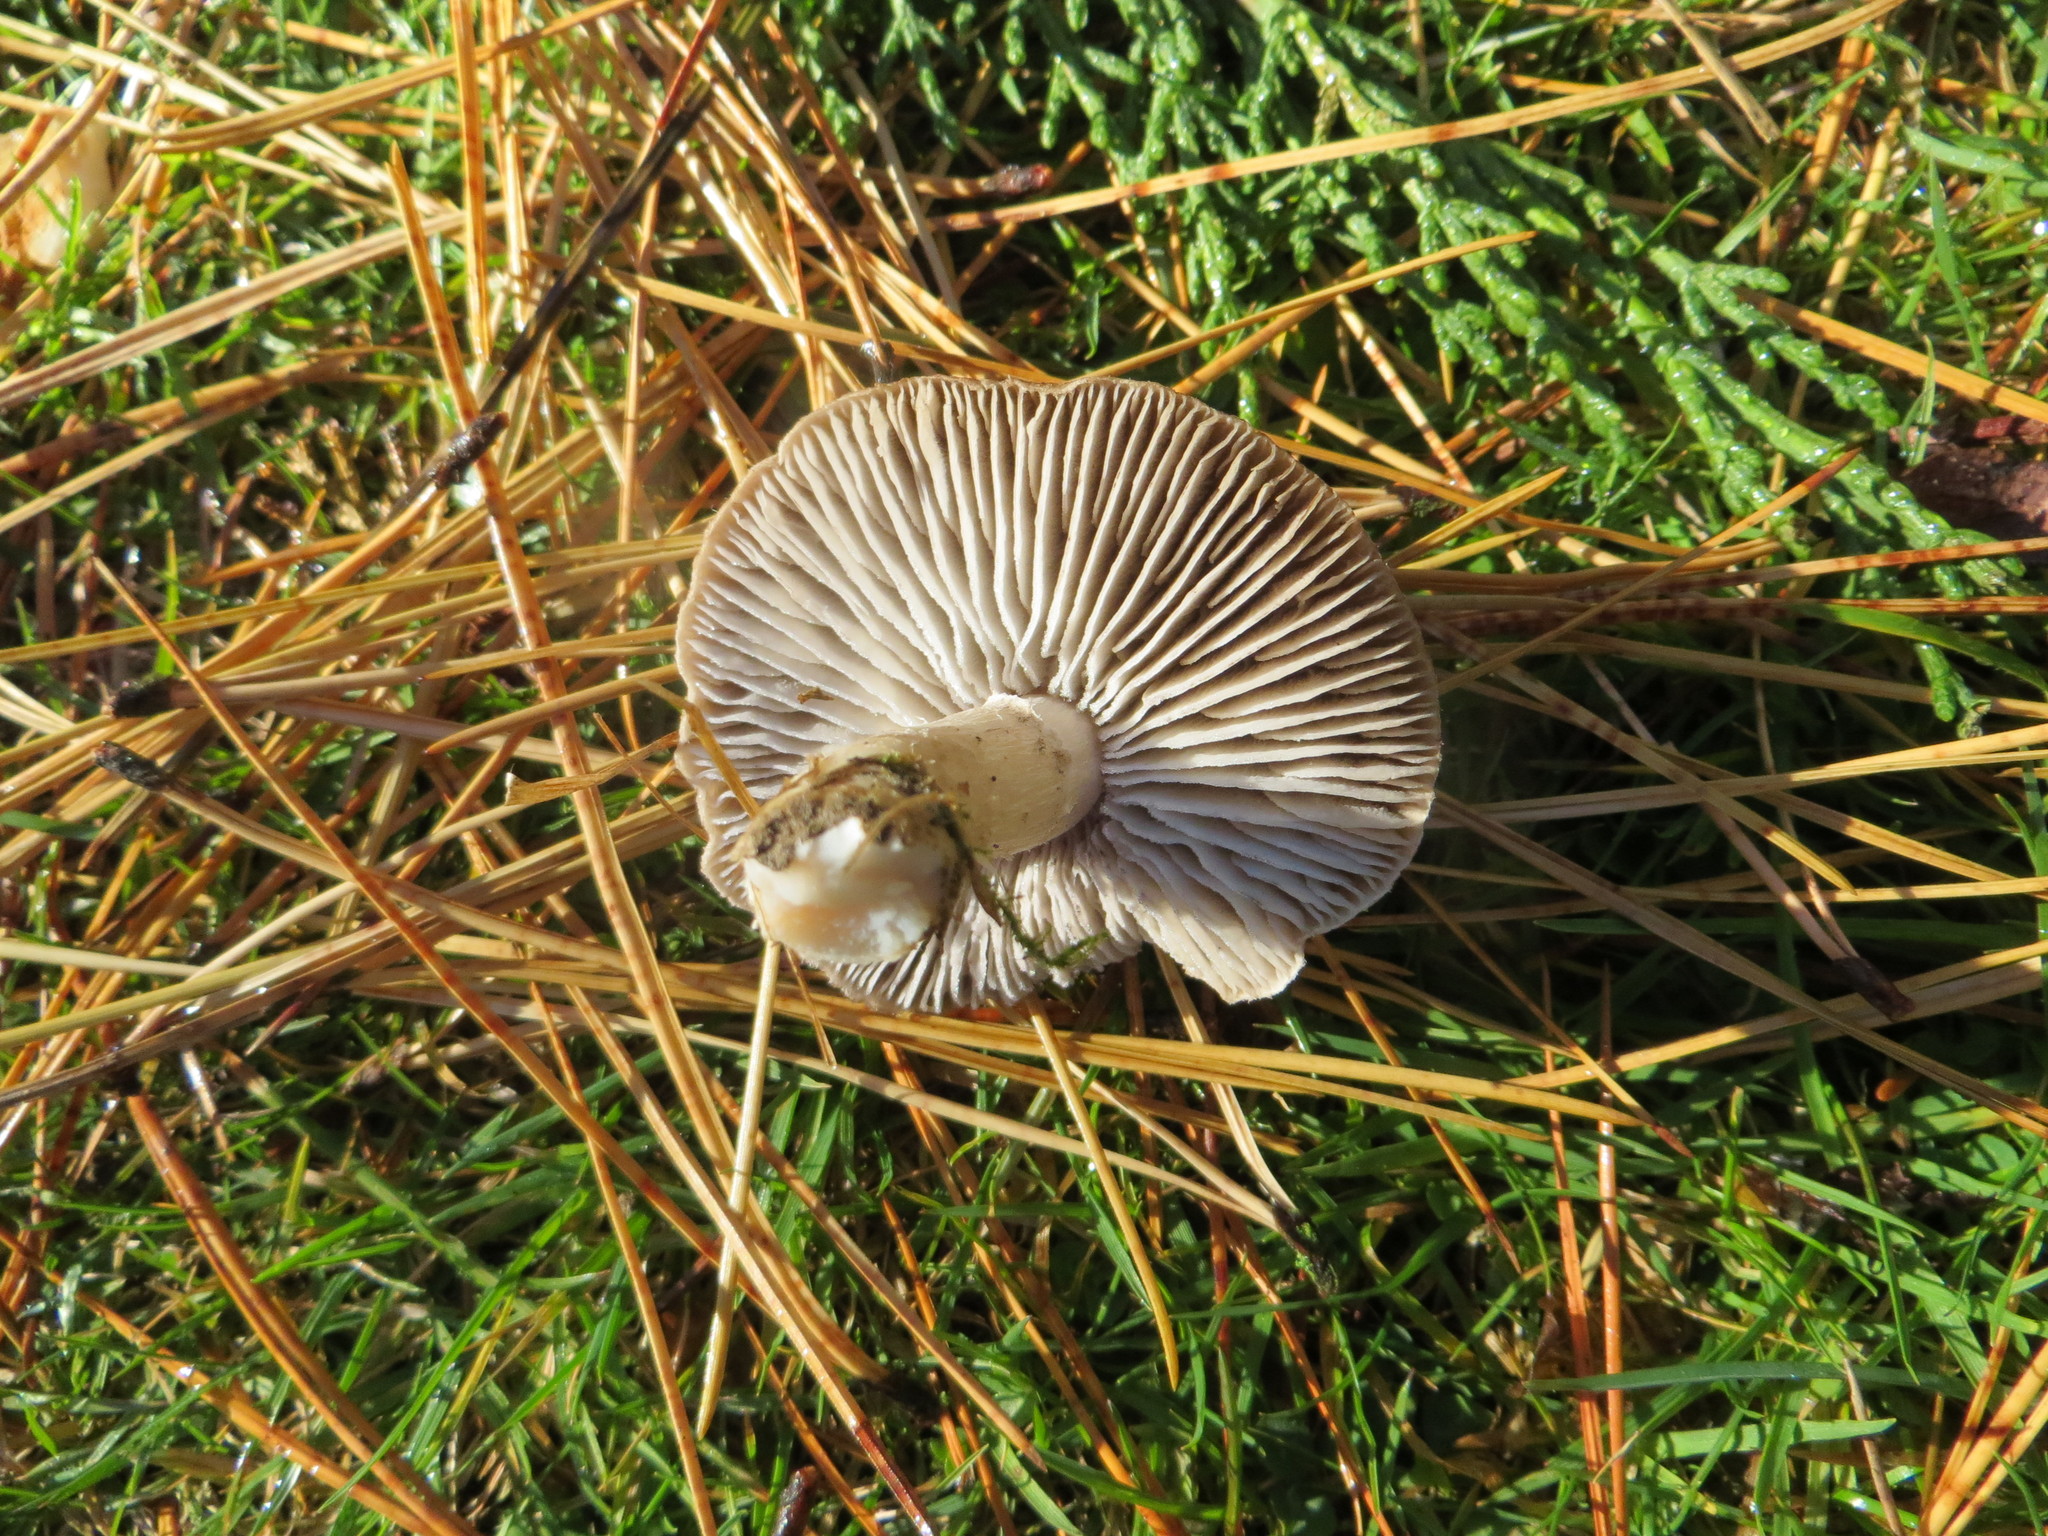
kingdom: Fungi
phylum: Basidiomycota
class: Agaricomycetes
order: Agaricales
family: Tricholomataceae
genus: Tricholoma
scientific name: Tricholoma terreum
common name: Grey knight
